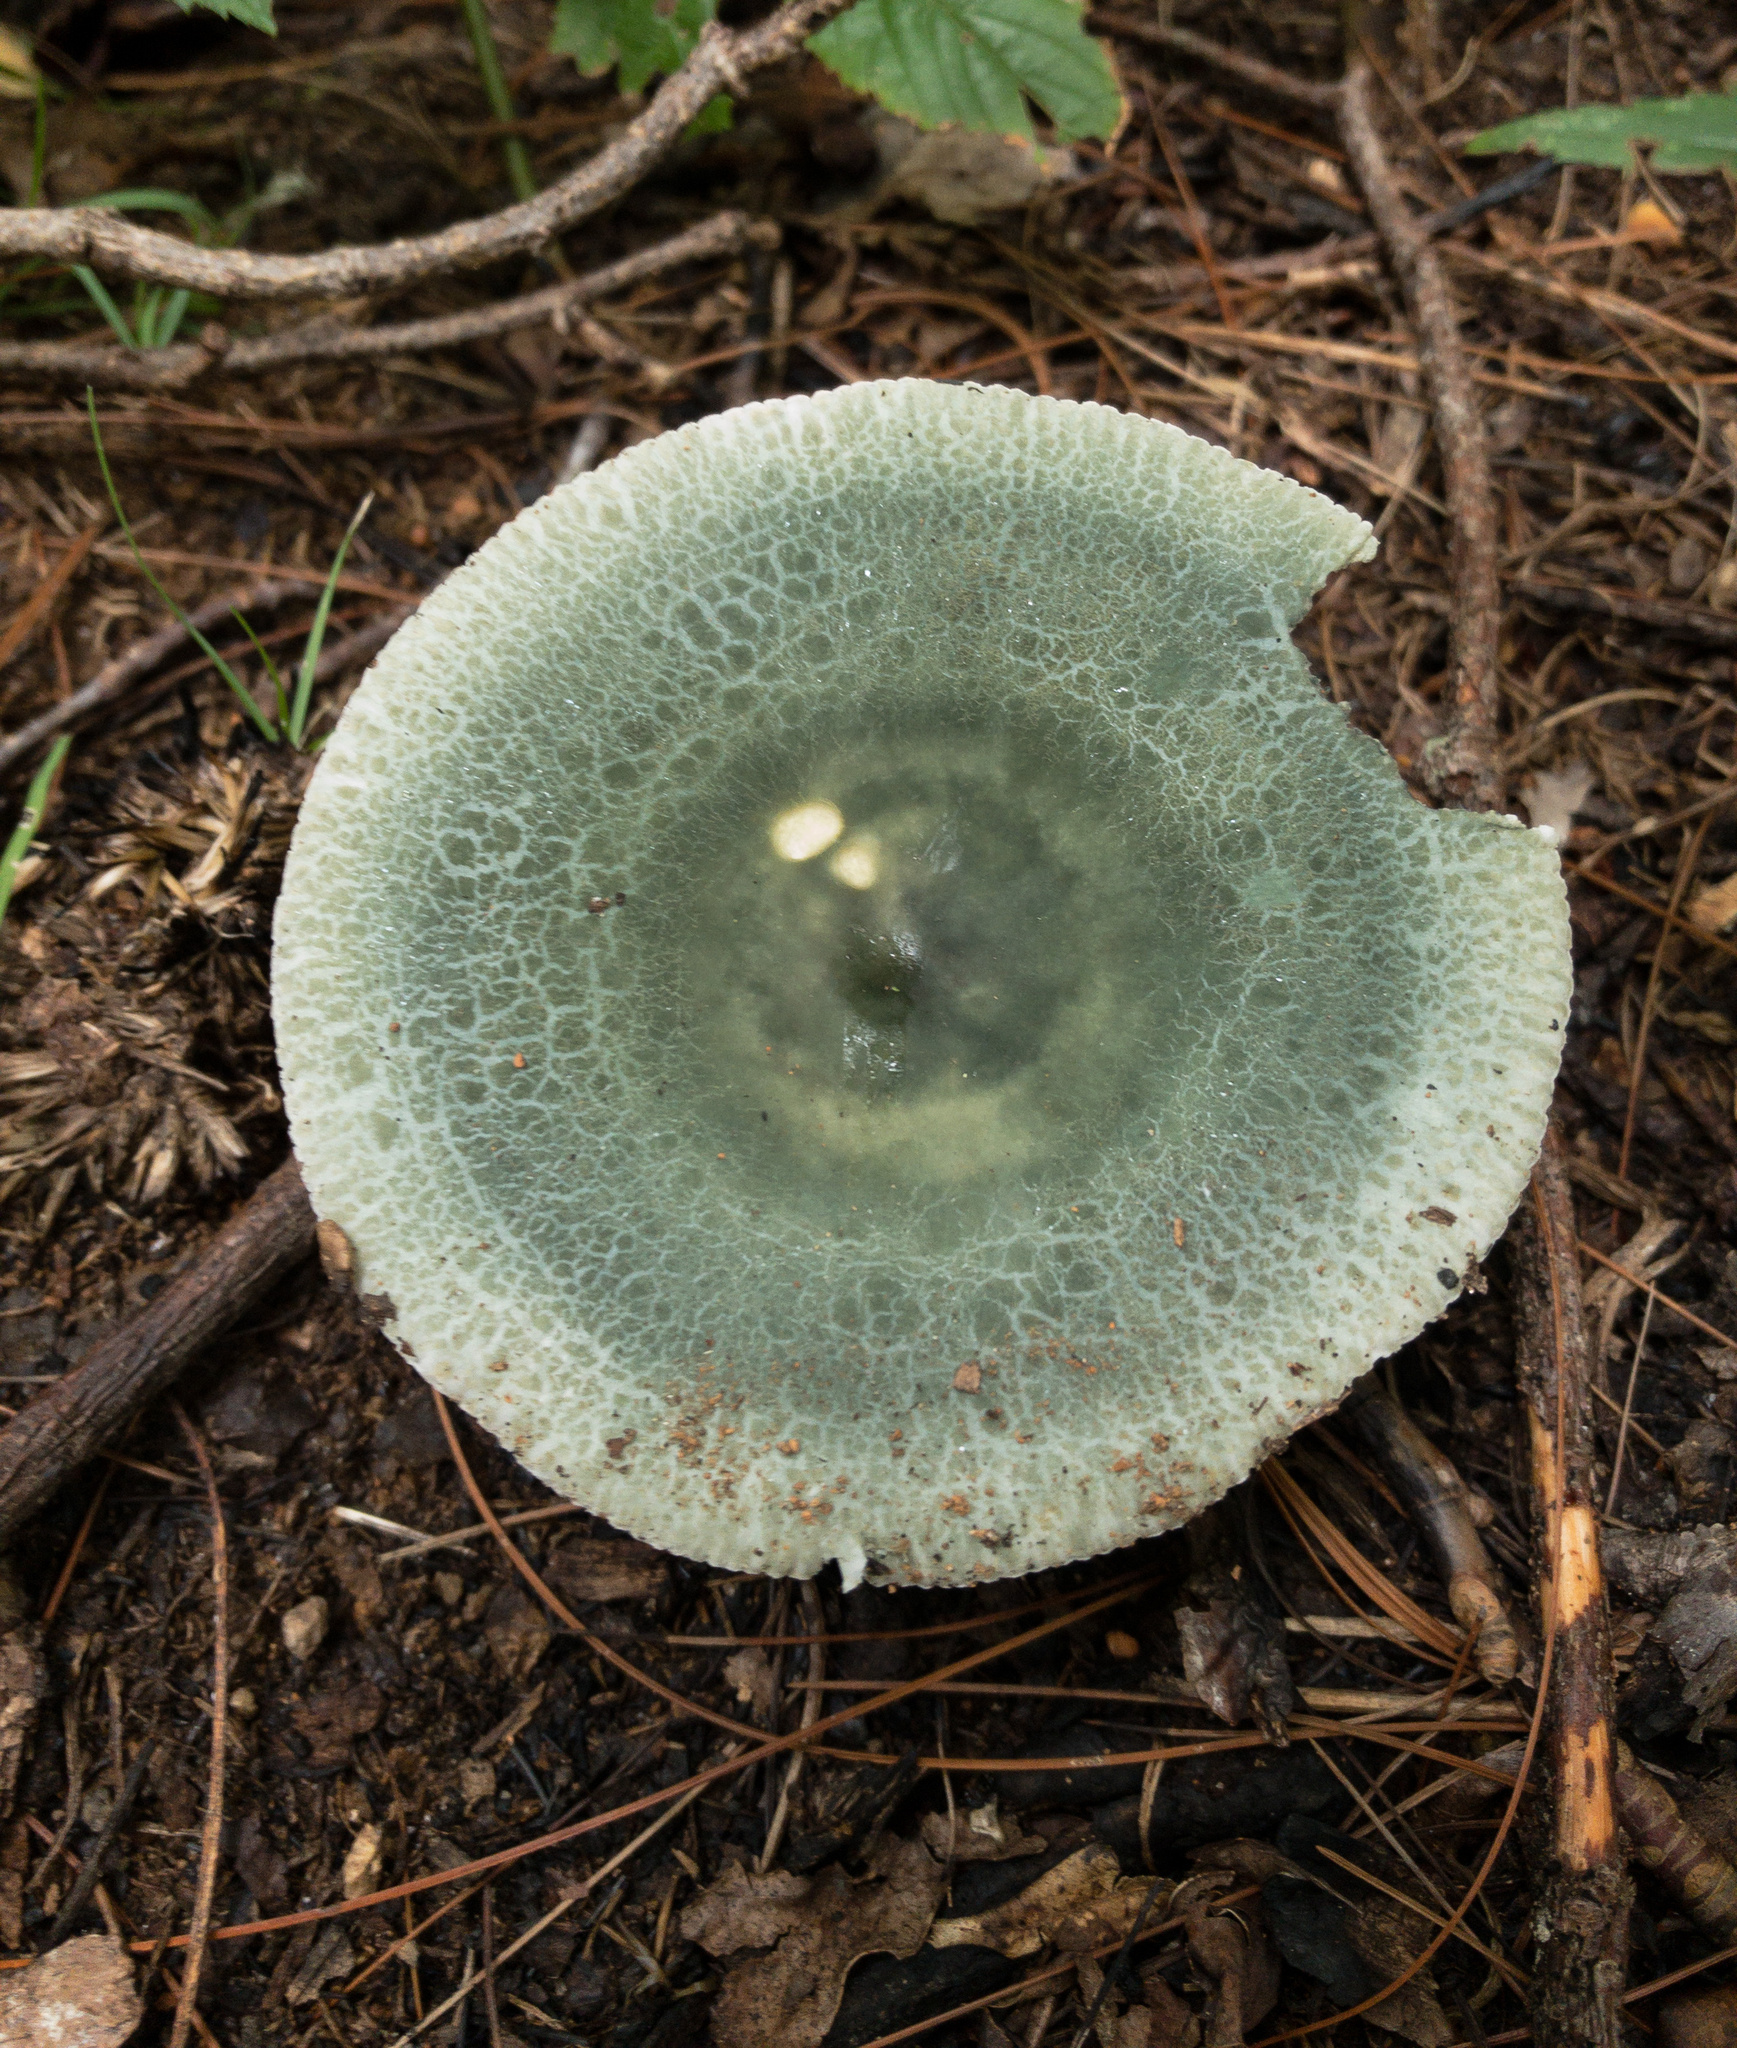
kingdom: Fungi
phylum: Basidiomycota
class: Agaricomycetes
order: Russulales
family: Russulaceae
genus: Russula
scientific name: Russula parvovirescens
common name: Blue-green cracking russula
